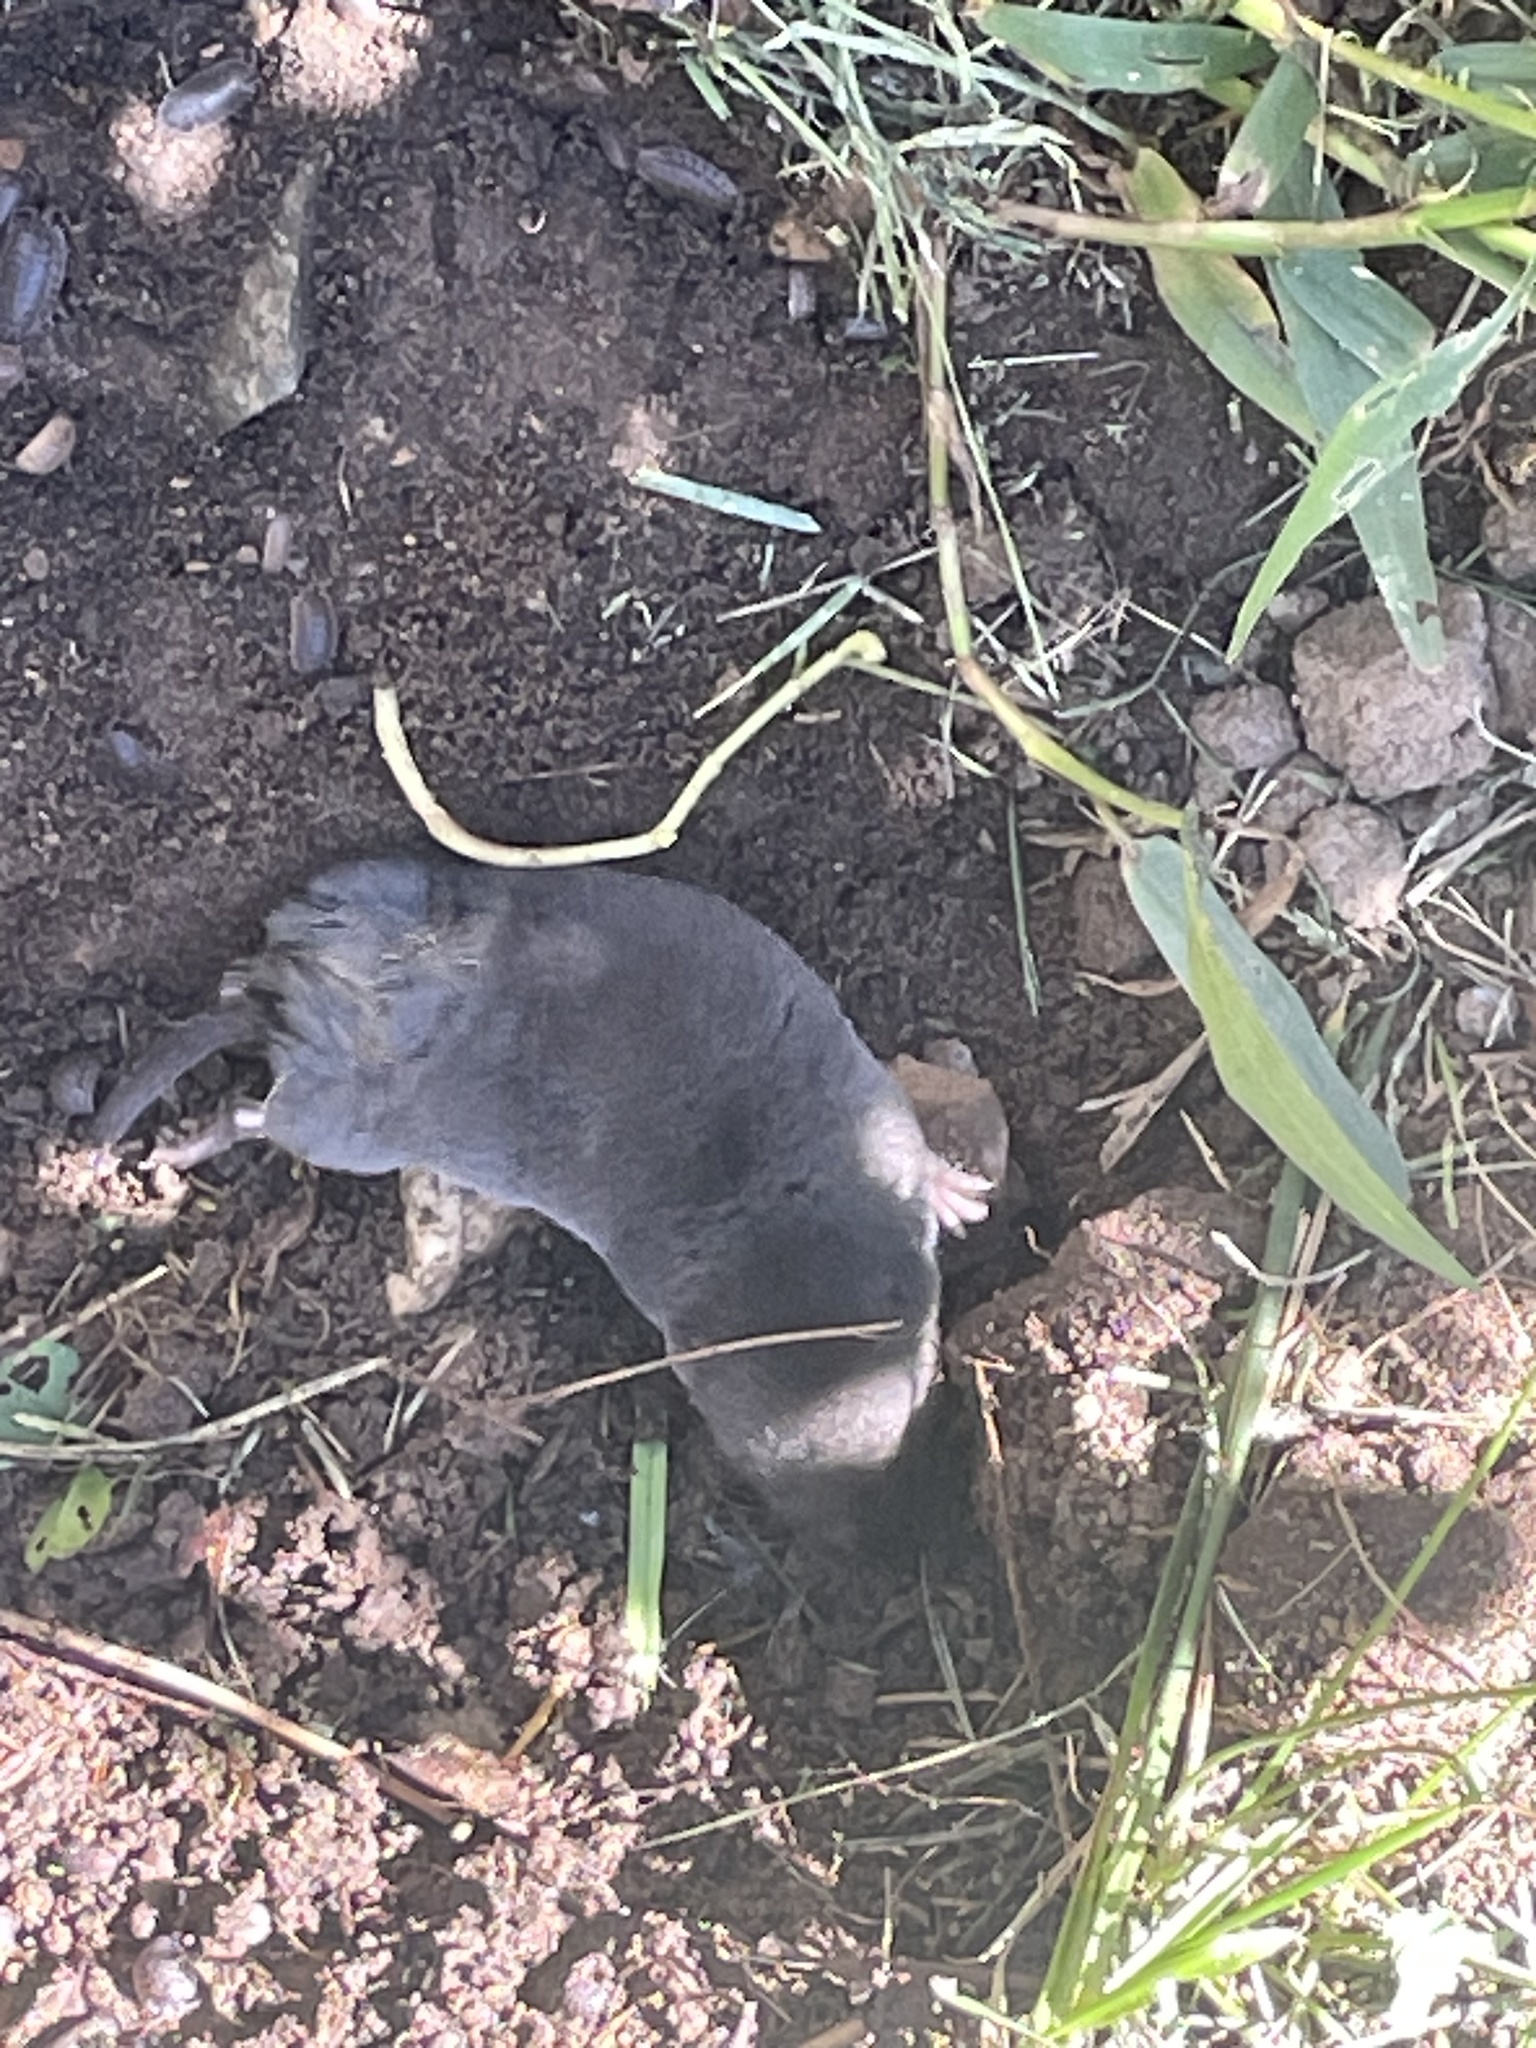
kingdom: Animalia
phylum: Chordata
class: Mammalia
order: Soricomorpha
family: Soricidae
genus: Blarina
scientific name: Blarina brevicauda
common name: Northern short-tailed shrew
